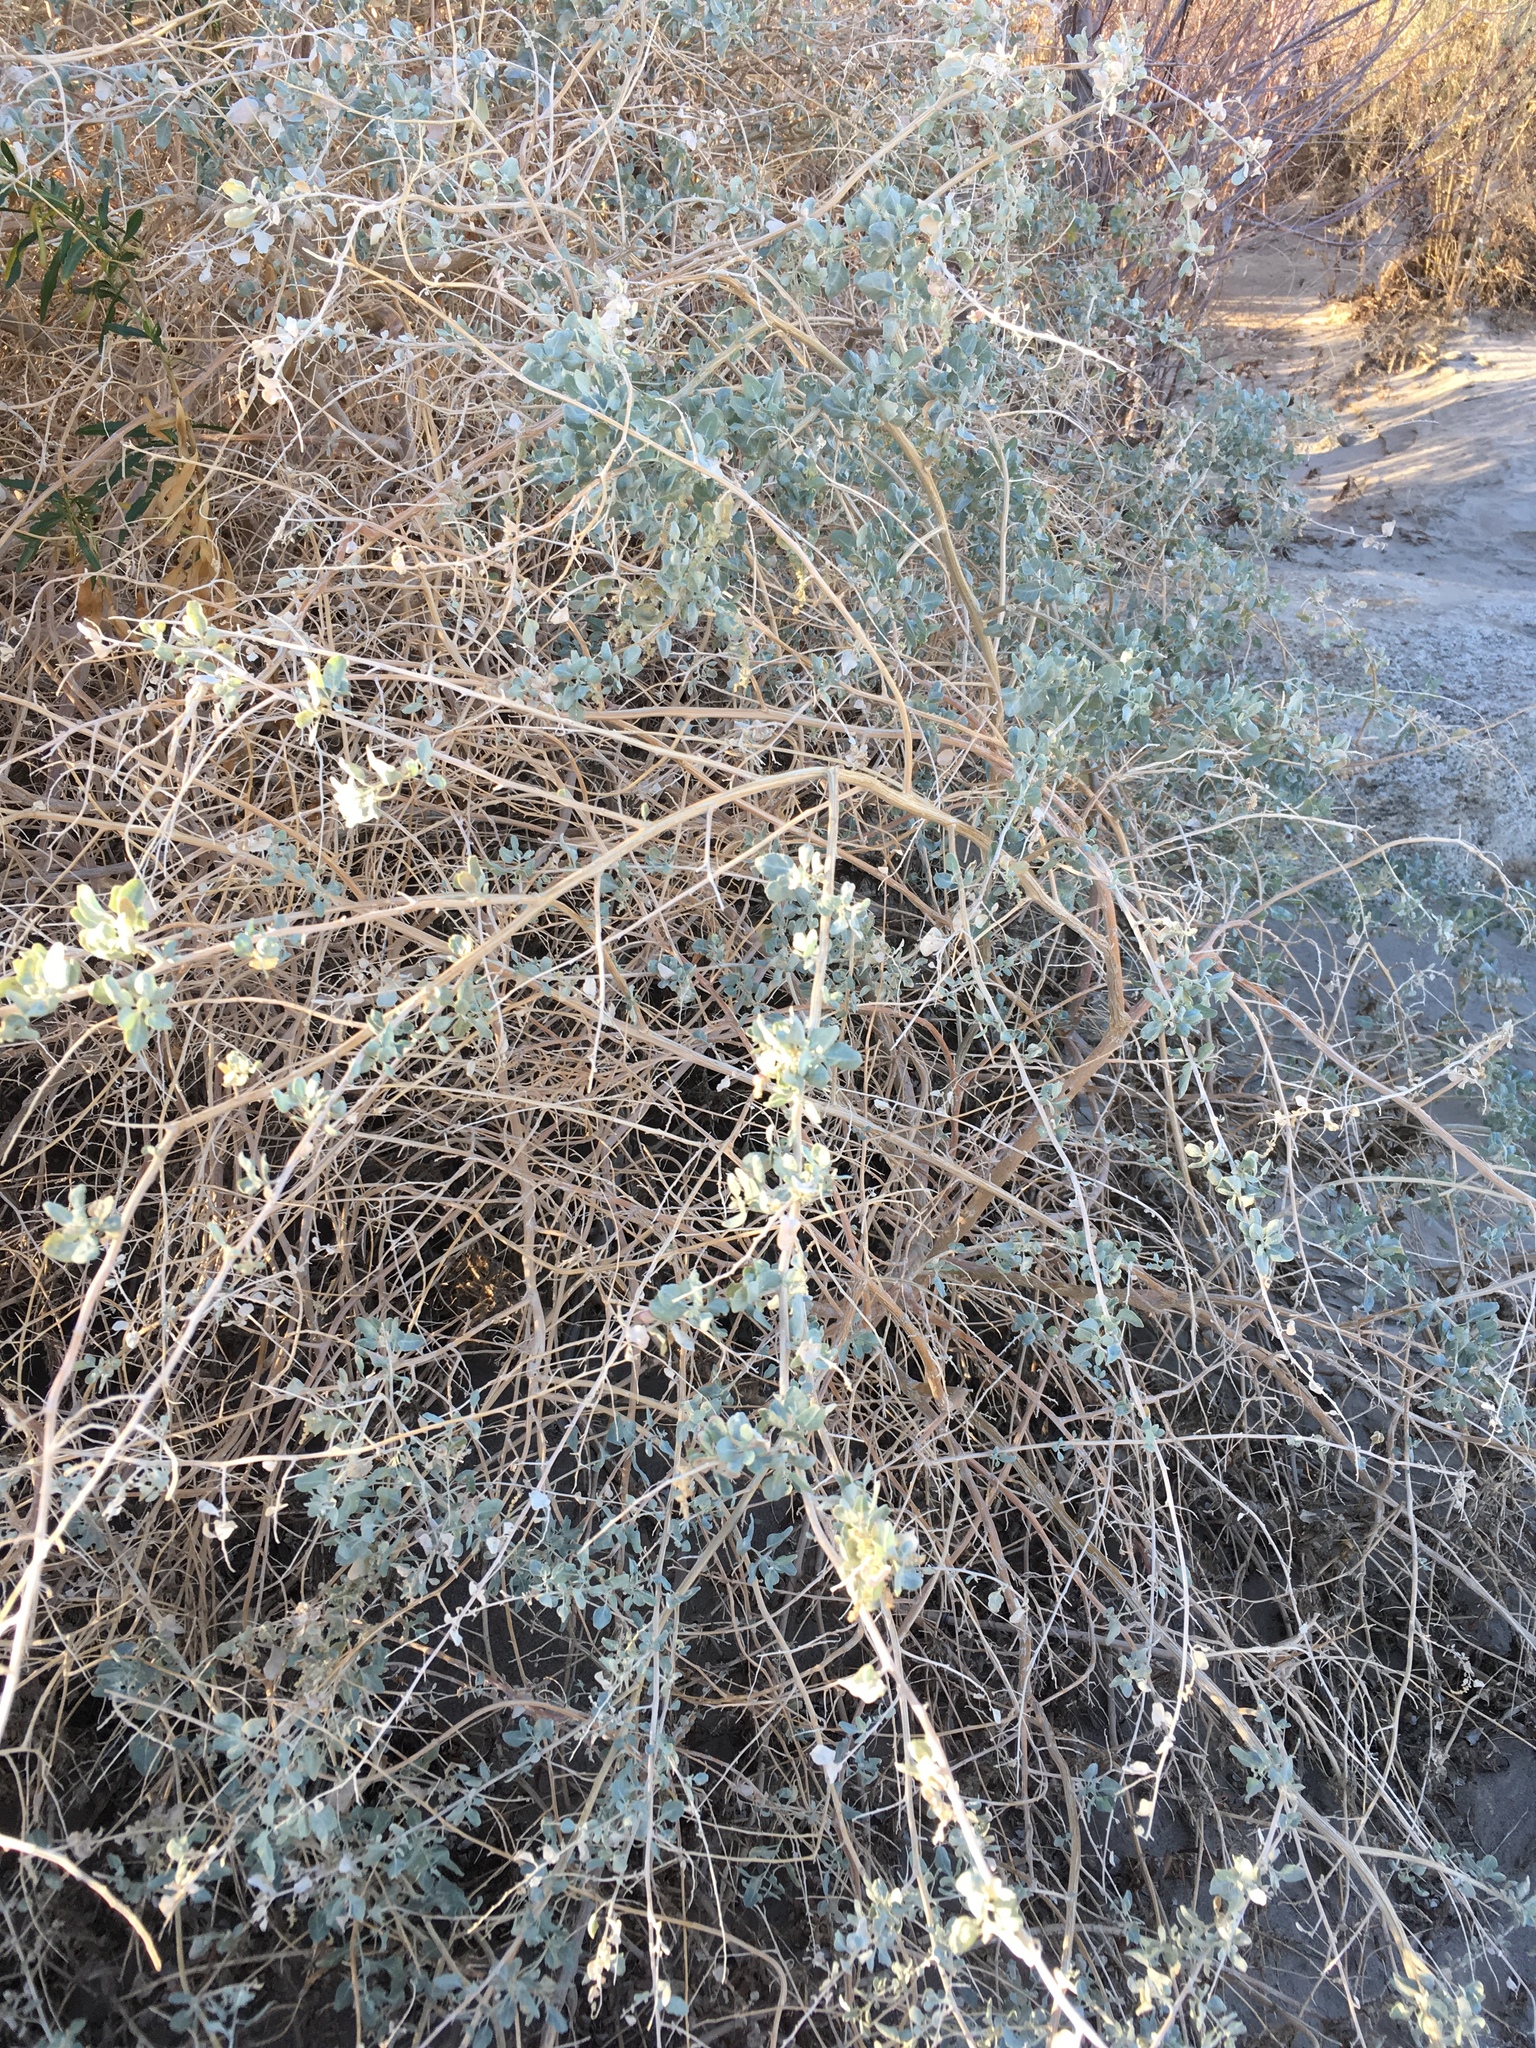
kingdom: Plantae
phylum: Tracheophyta
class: Magnoliopsida
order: Caryophyllales
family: Amaranthaceae
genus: Atriplex
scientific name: Atriplex lentiformis
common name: Big saltbush
